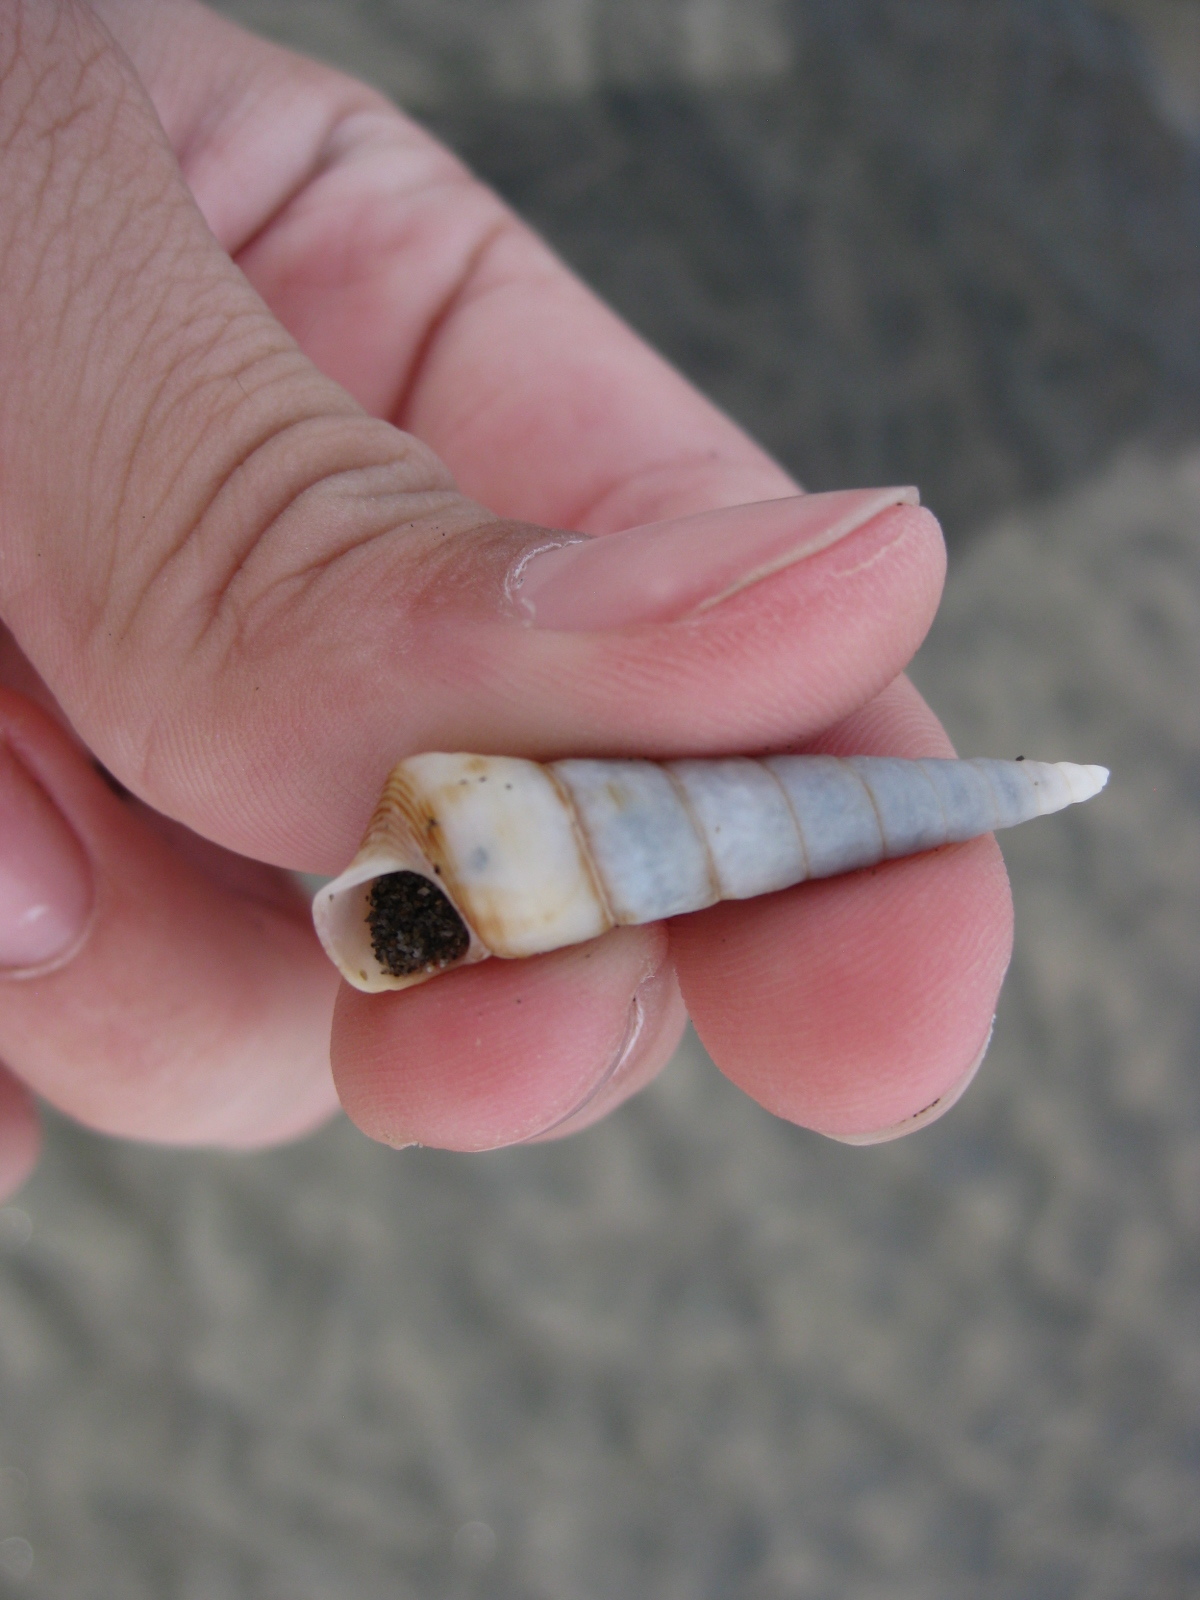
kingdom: Animalia
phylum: Mollusca
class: Gastropoda
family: Turritellidae
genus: Maoricolpus
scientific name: Maoricolpus roseus
